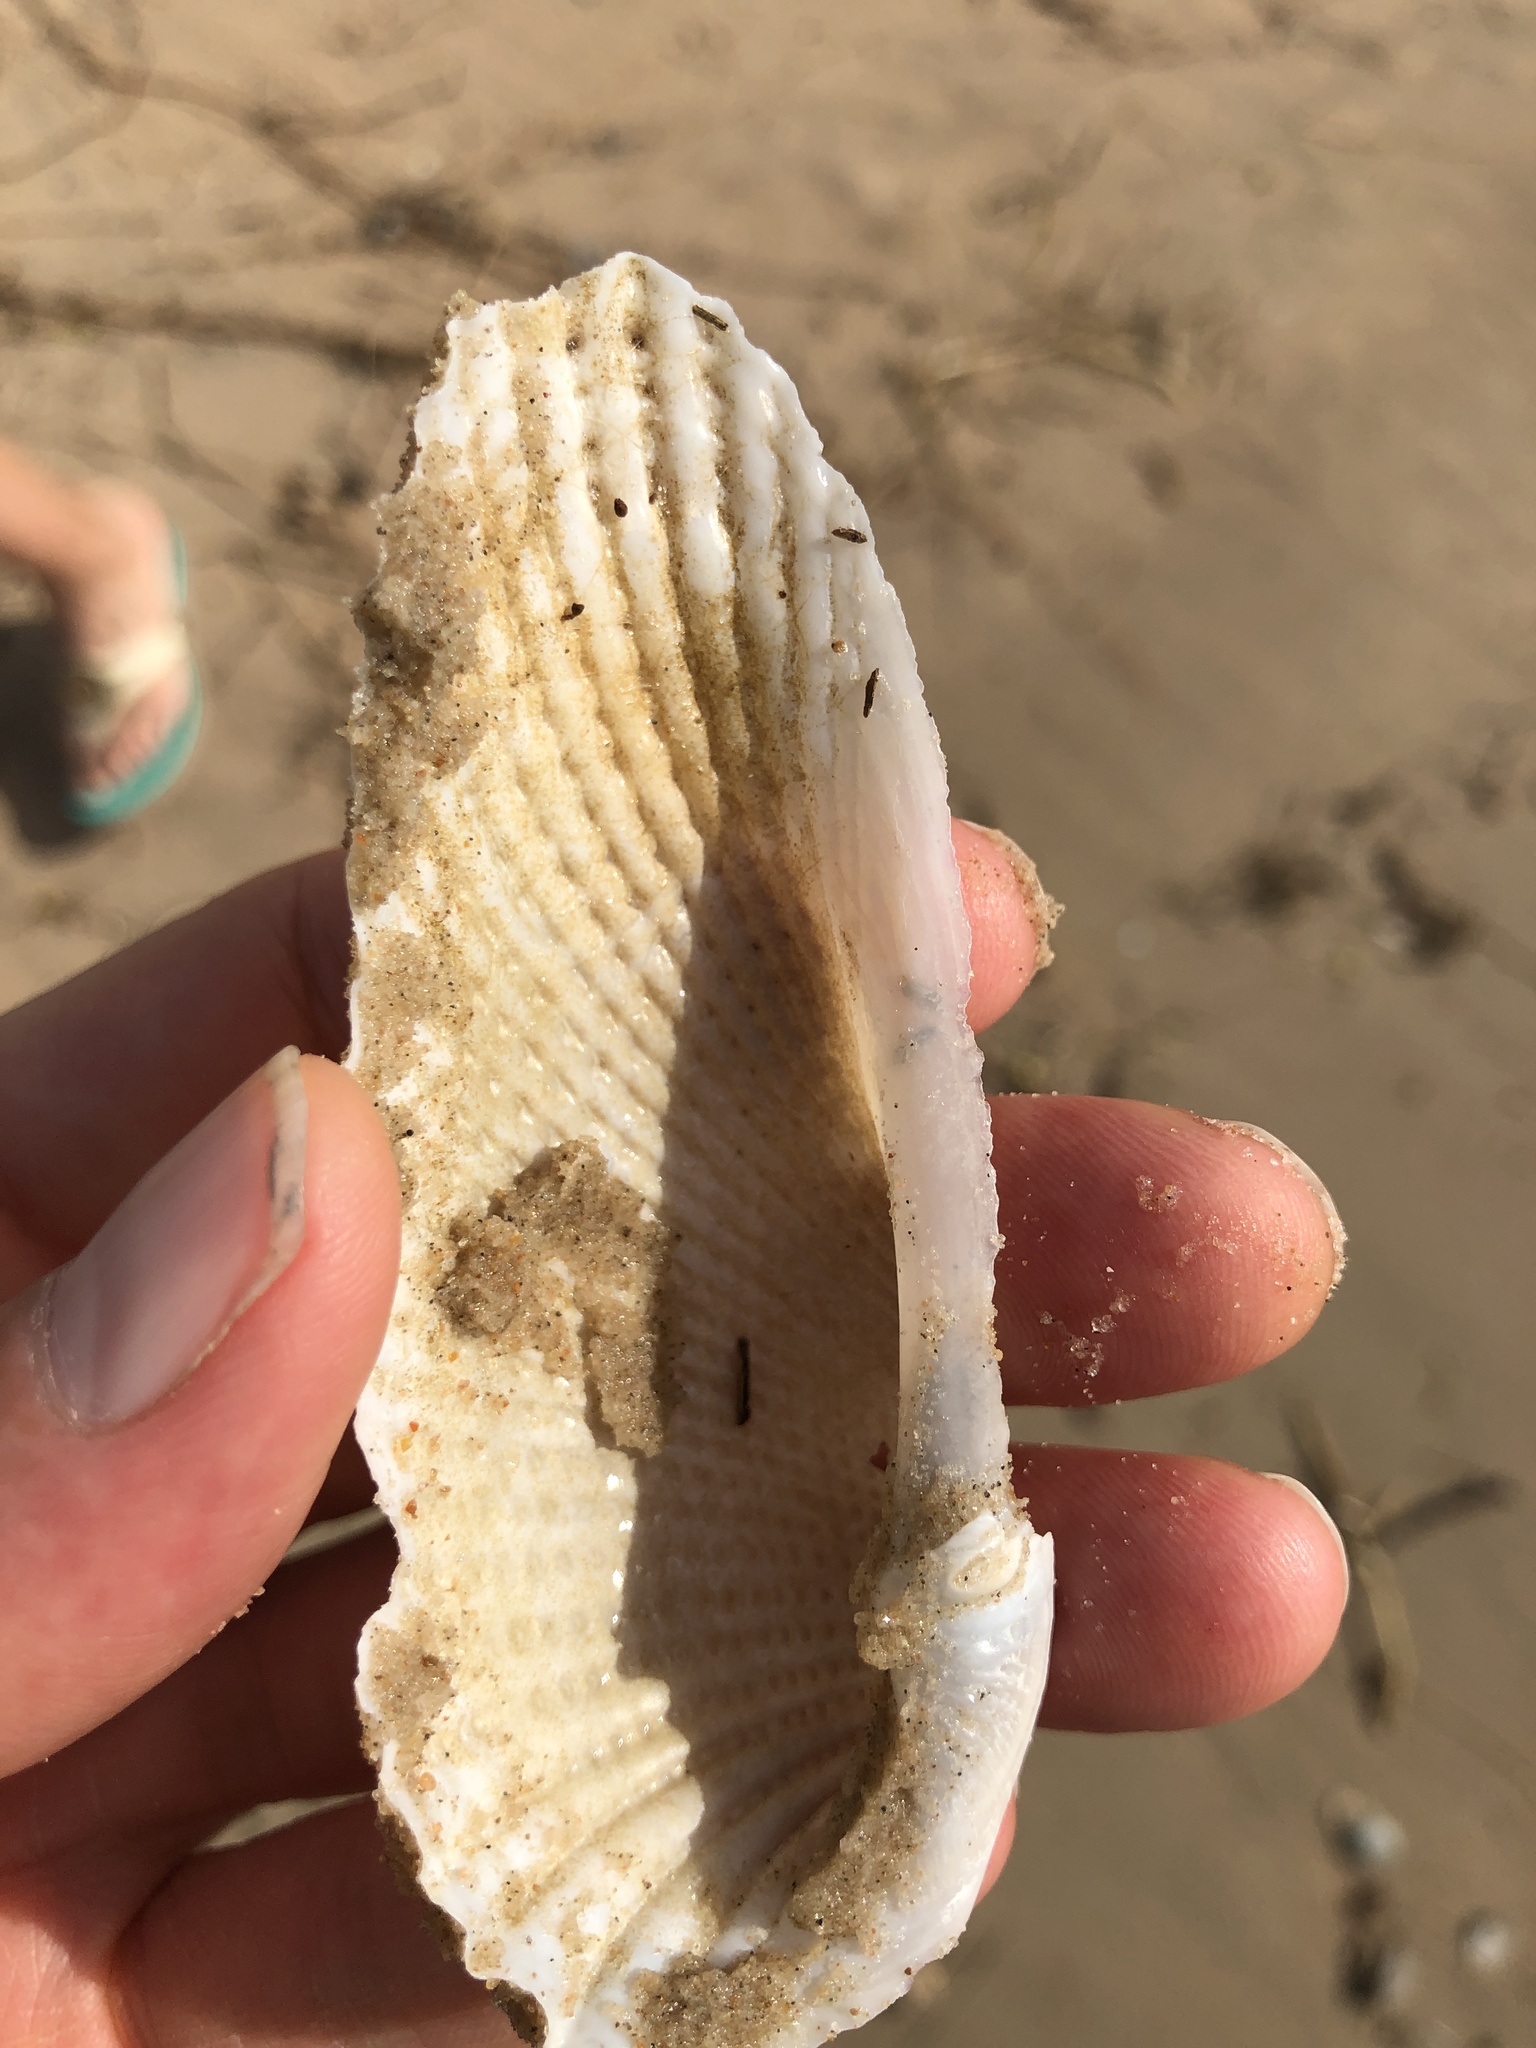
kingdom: Animalia
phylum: Mollusca
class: Bivalvia
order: Myida
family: Pholadidae
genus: Cyrtopleura
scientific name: Cyrtopleura costata
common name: Angel wing
